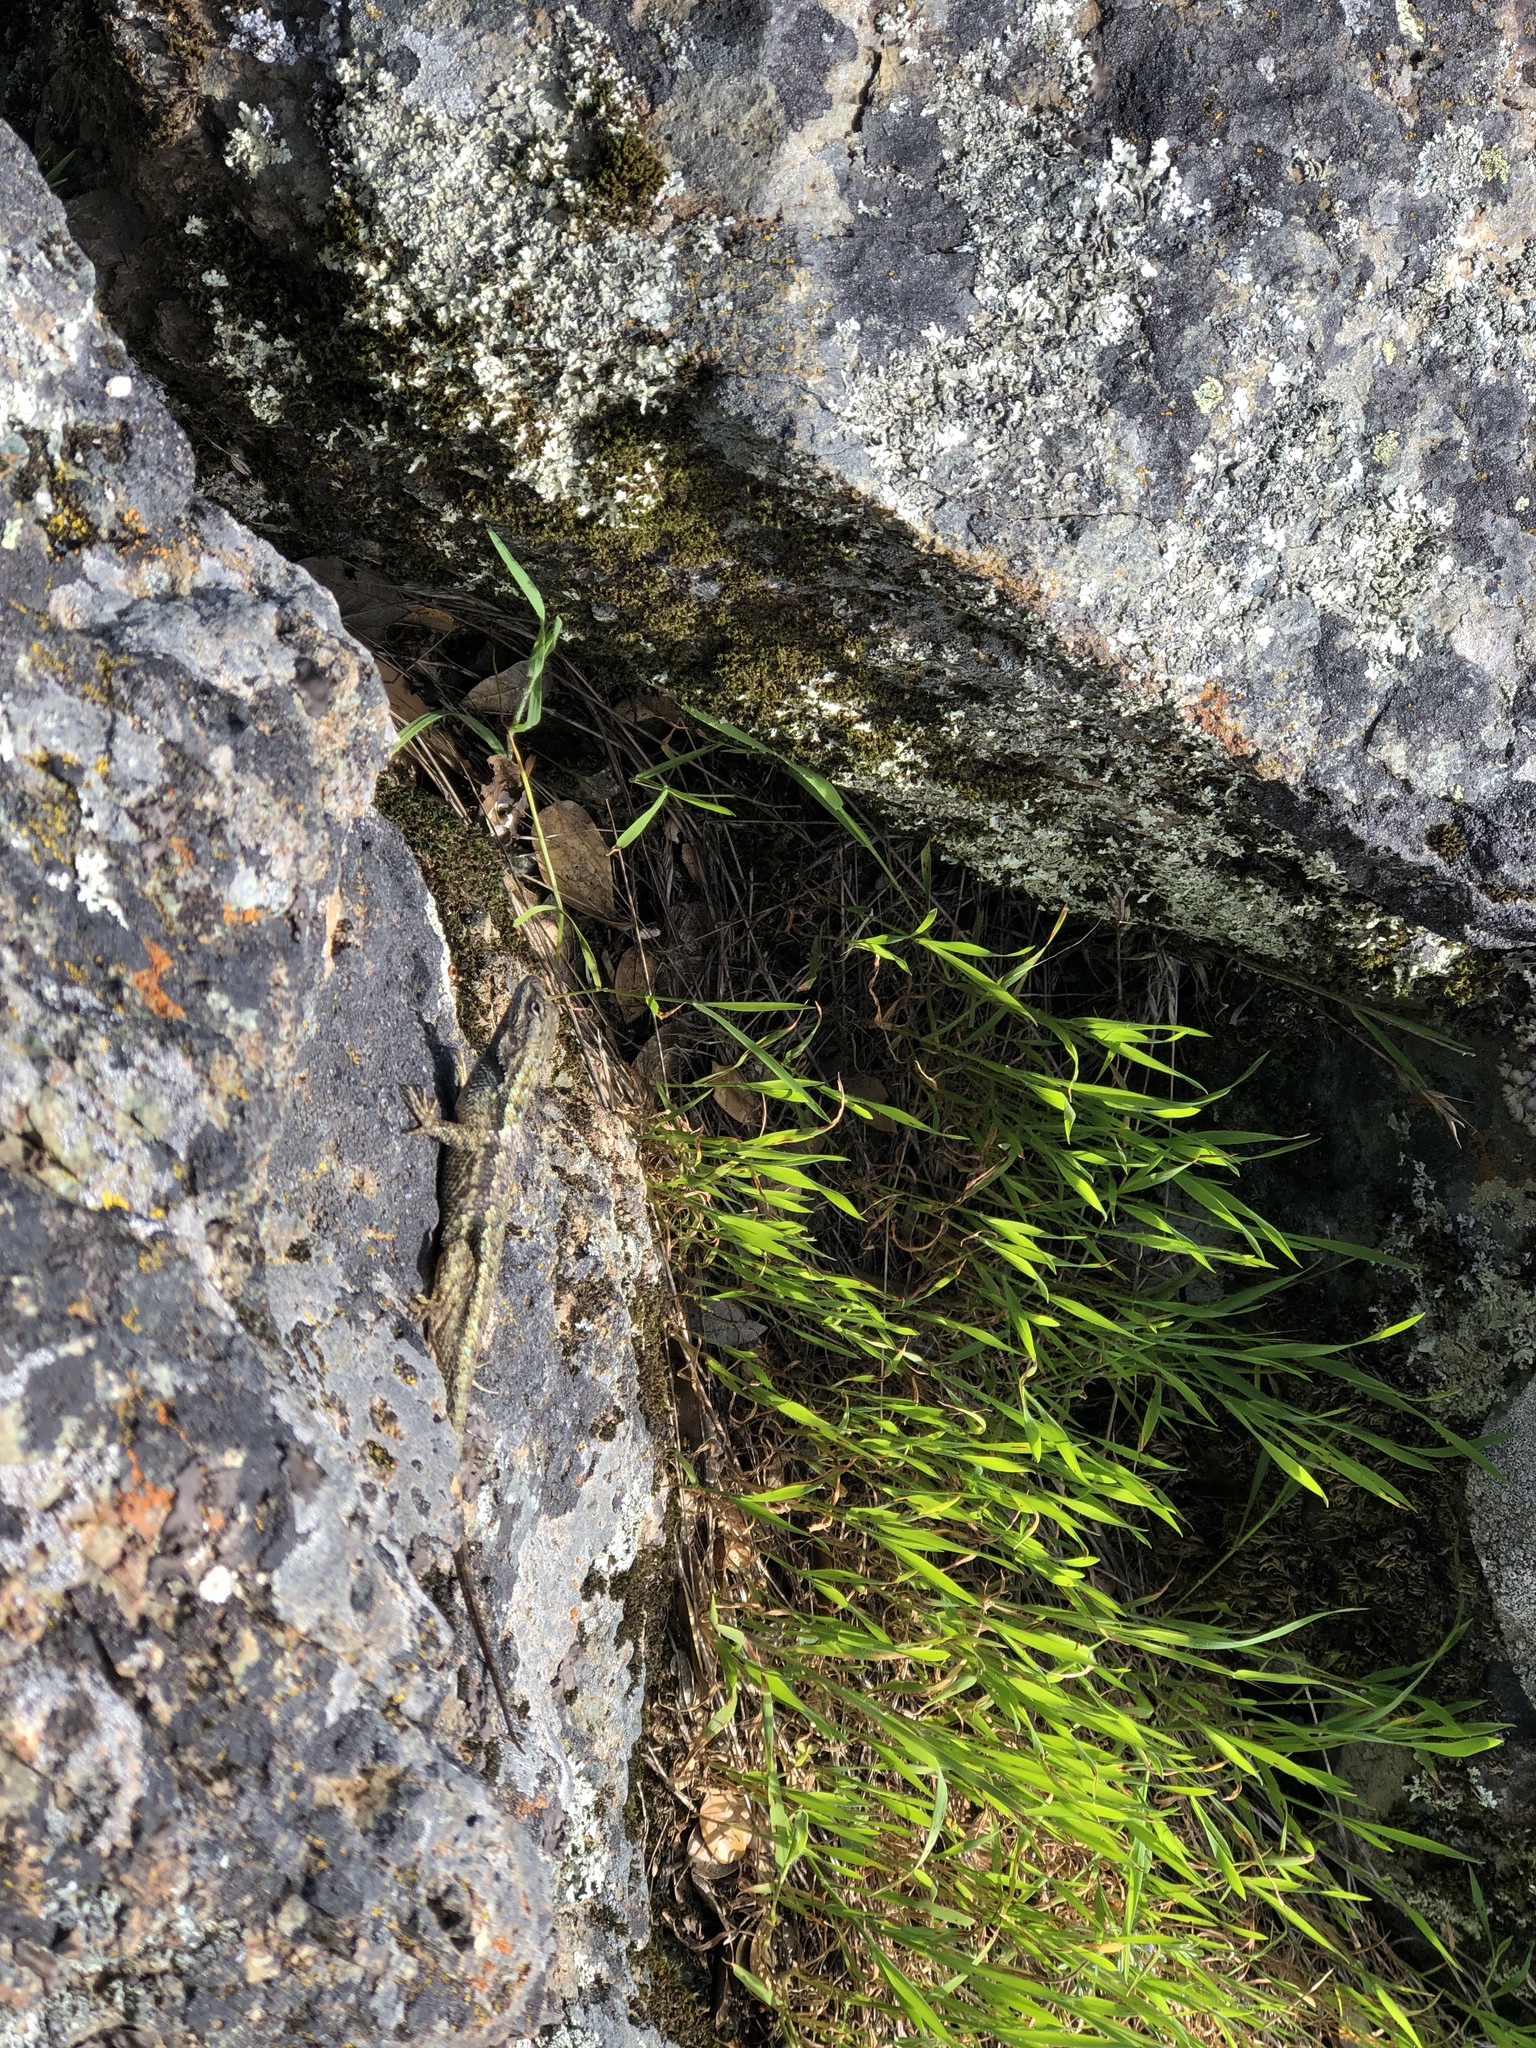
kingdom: Animalia
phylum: Chordata
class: Squamata
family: Phrynosomatidae
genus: Sceloporus
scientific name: Sceloporus occidentalis
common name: Western fence lizard
